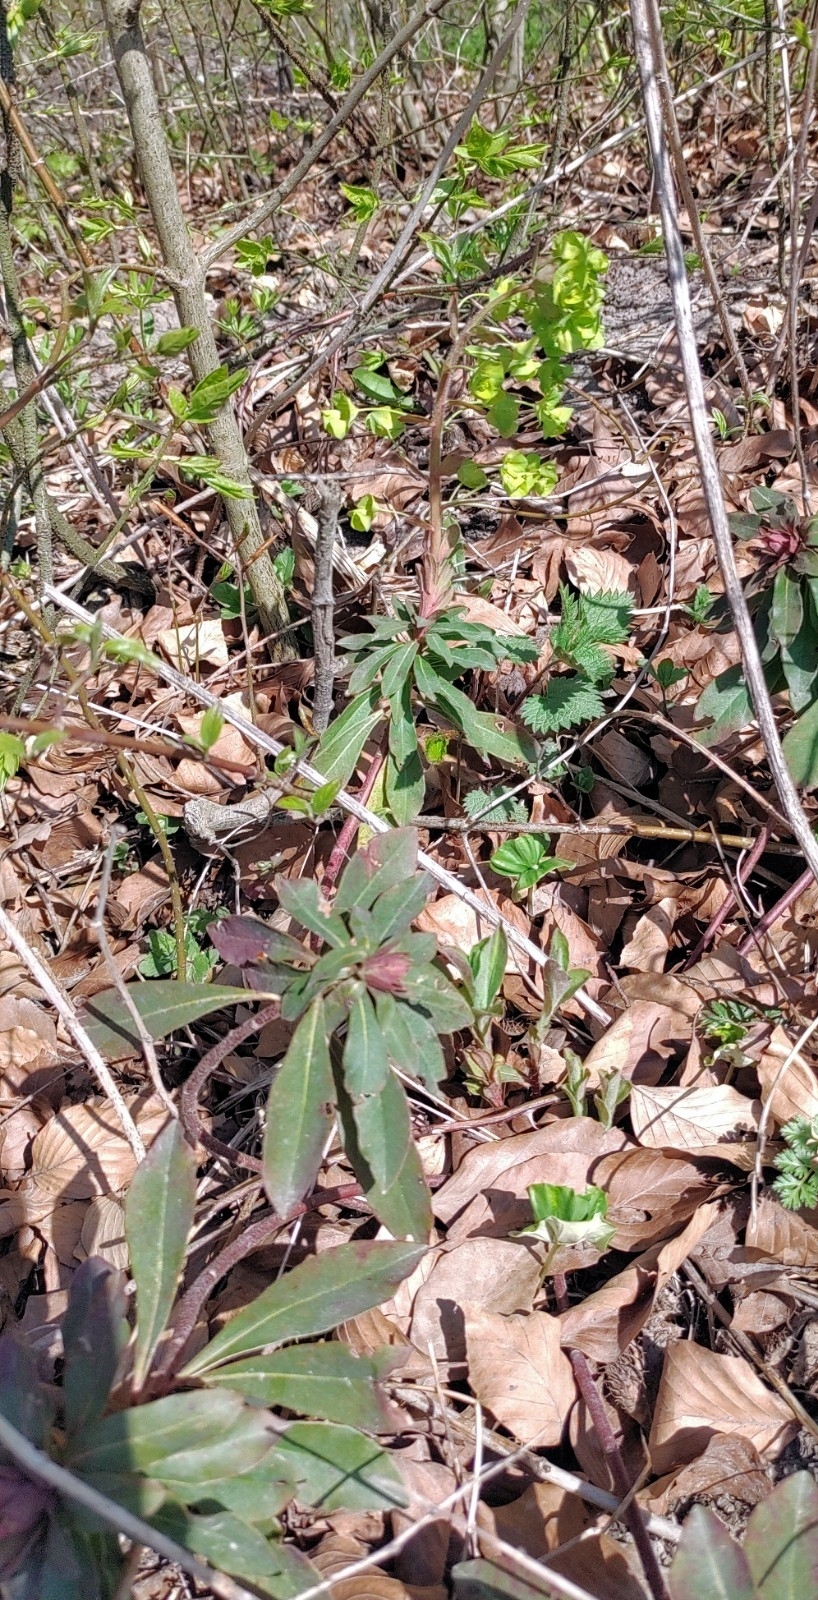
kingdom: Plantae
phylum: Tracheophyta
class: Magnoliopsida
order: Malpighiales
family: Euphorbiaceae
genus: Euphorbia
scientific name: Euphorbia amygdaloides
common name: Wood spurge
